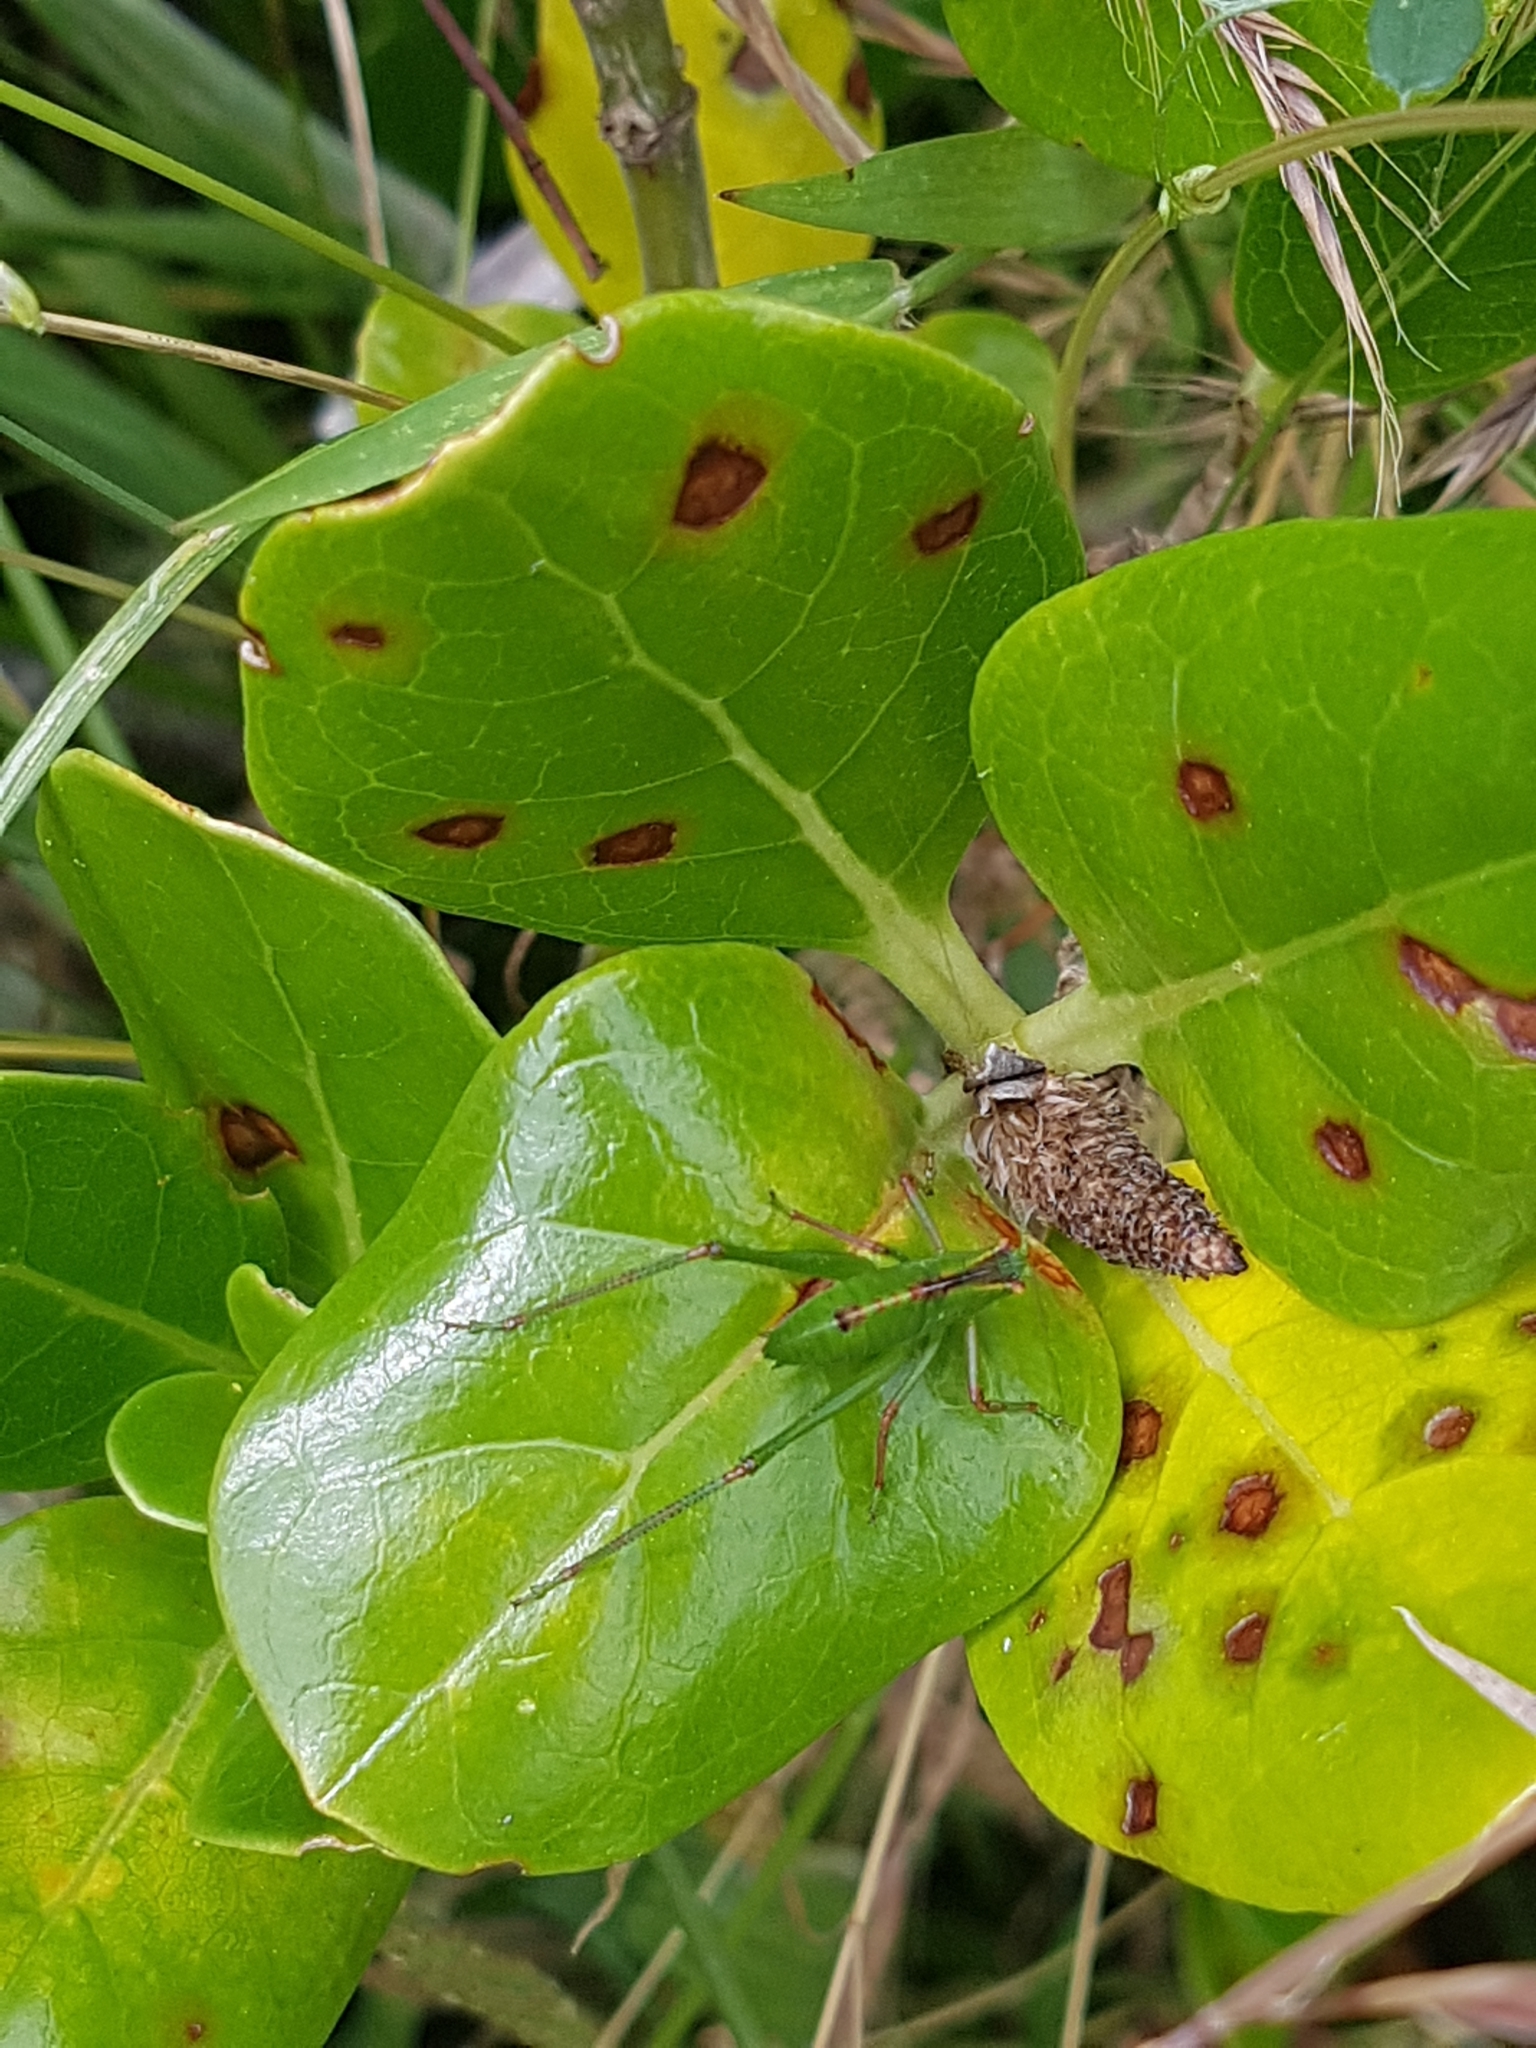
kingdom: Animalia
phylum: Arthropoda
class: Insecta
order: Orthoptera
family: Tettigoniidae
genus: Caedicia
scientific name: Caedicia simplex
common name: Common garden katydid
